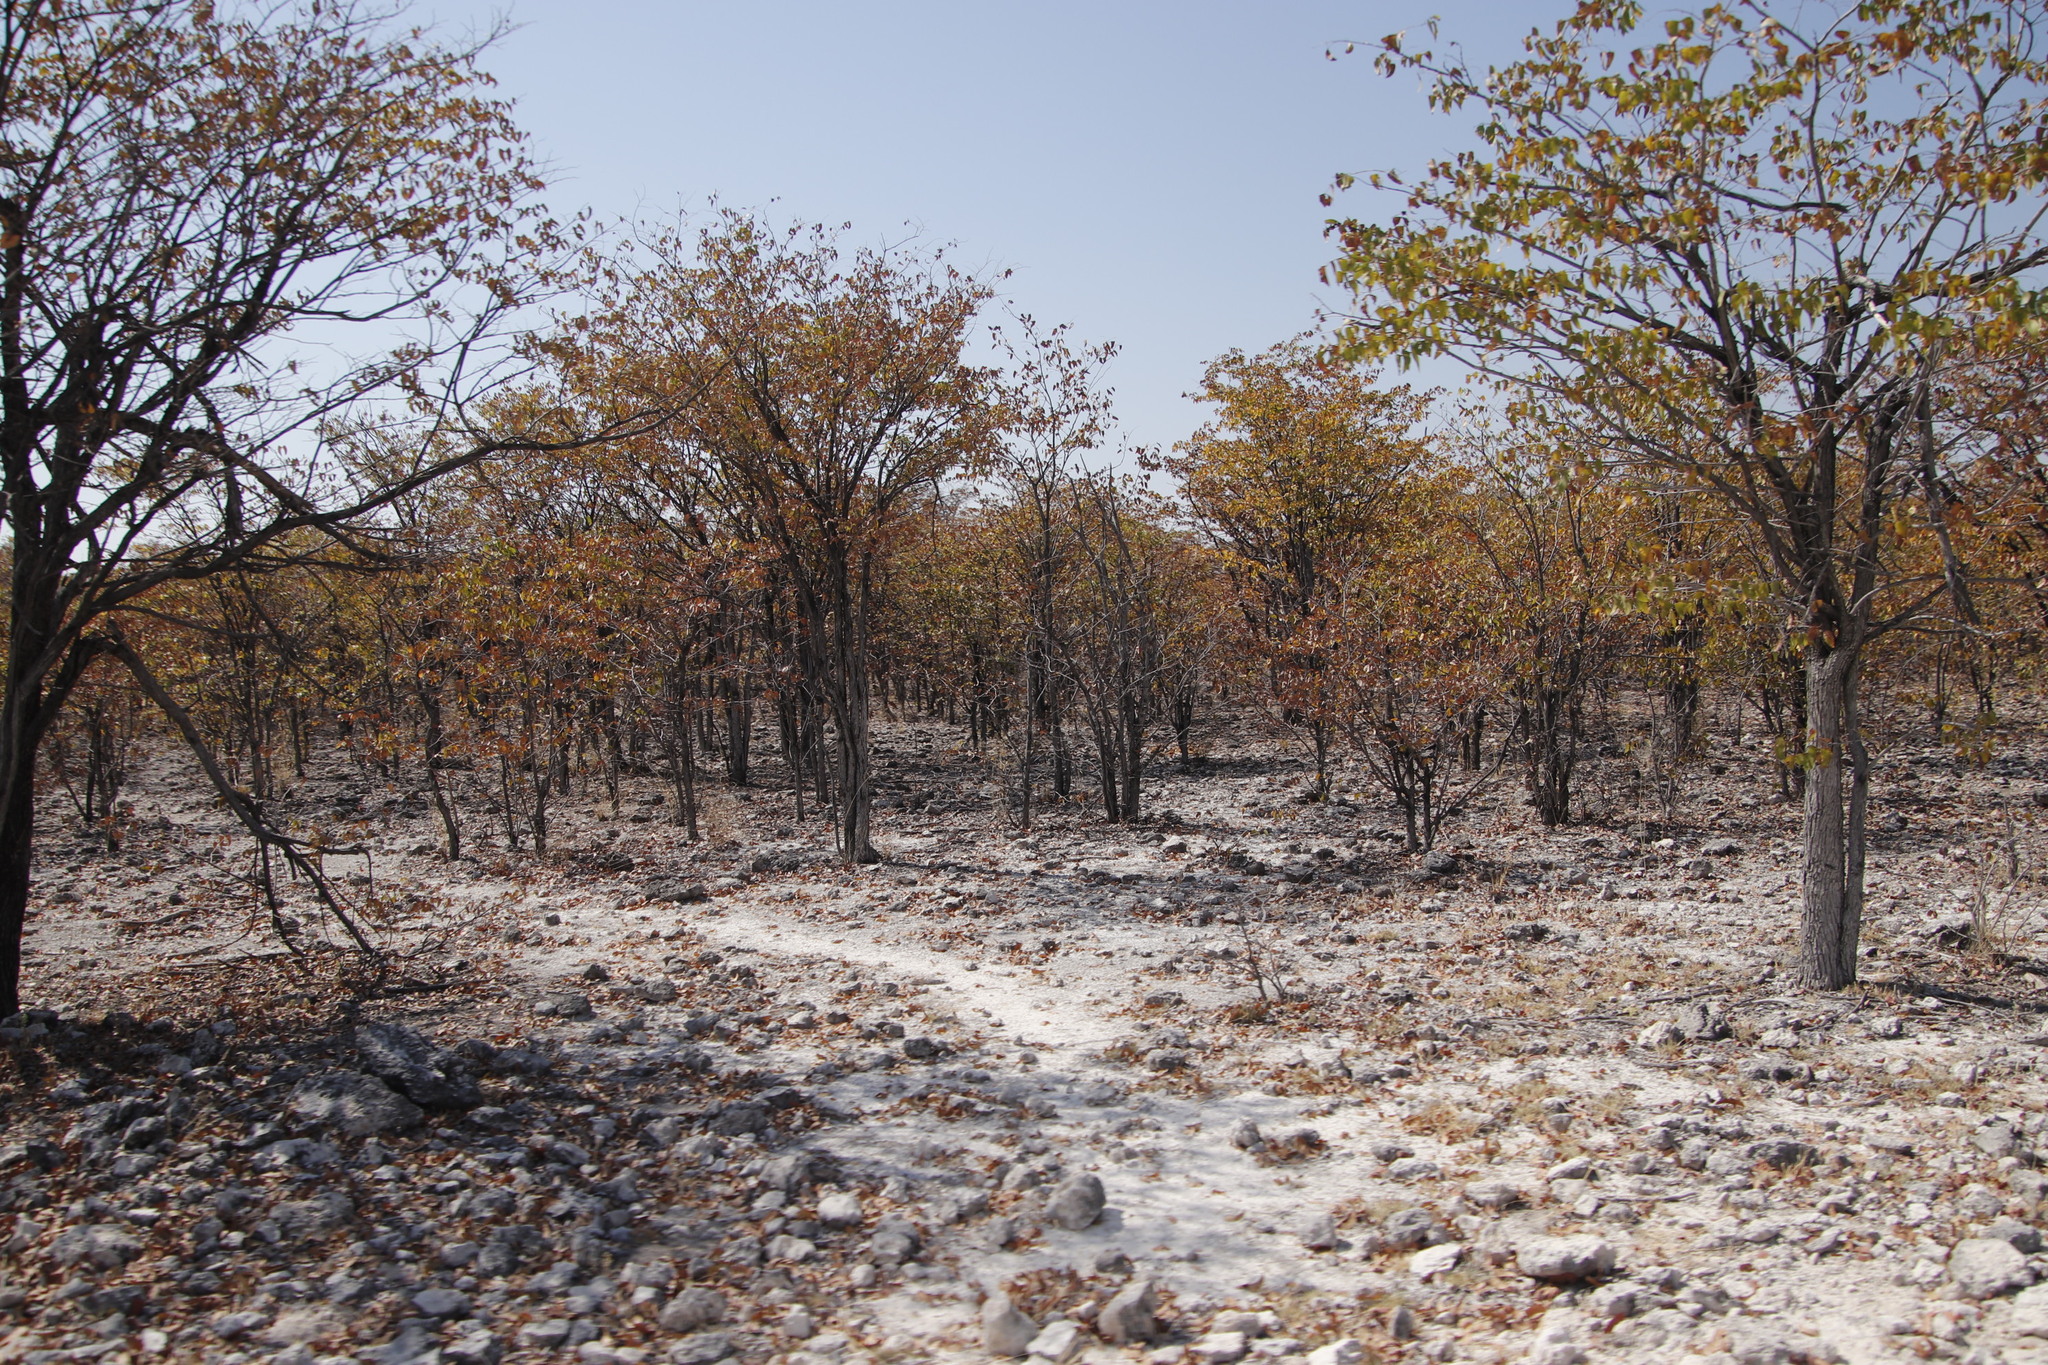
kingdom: Plantae
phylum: Tracheophyta
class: Magnoliopsida
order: Fabales
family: Fabaceae
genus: Colophospermum
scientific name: Colophospermum mopane
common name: Mopane
